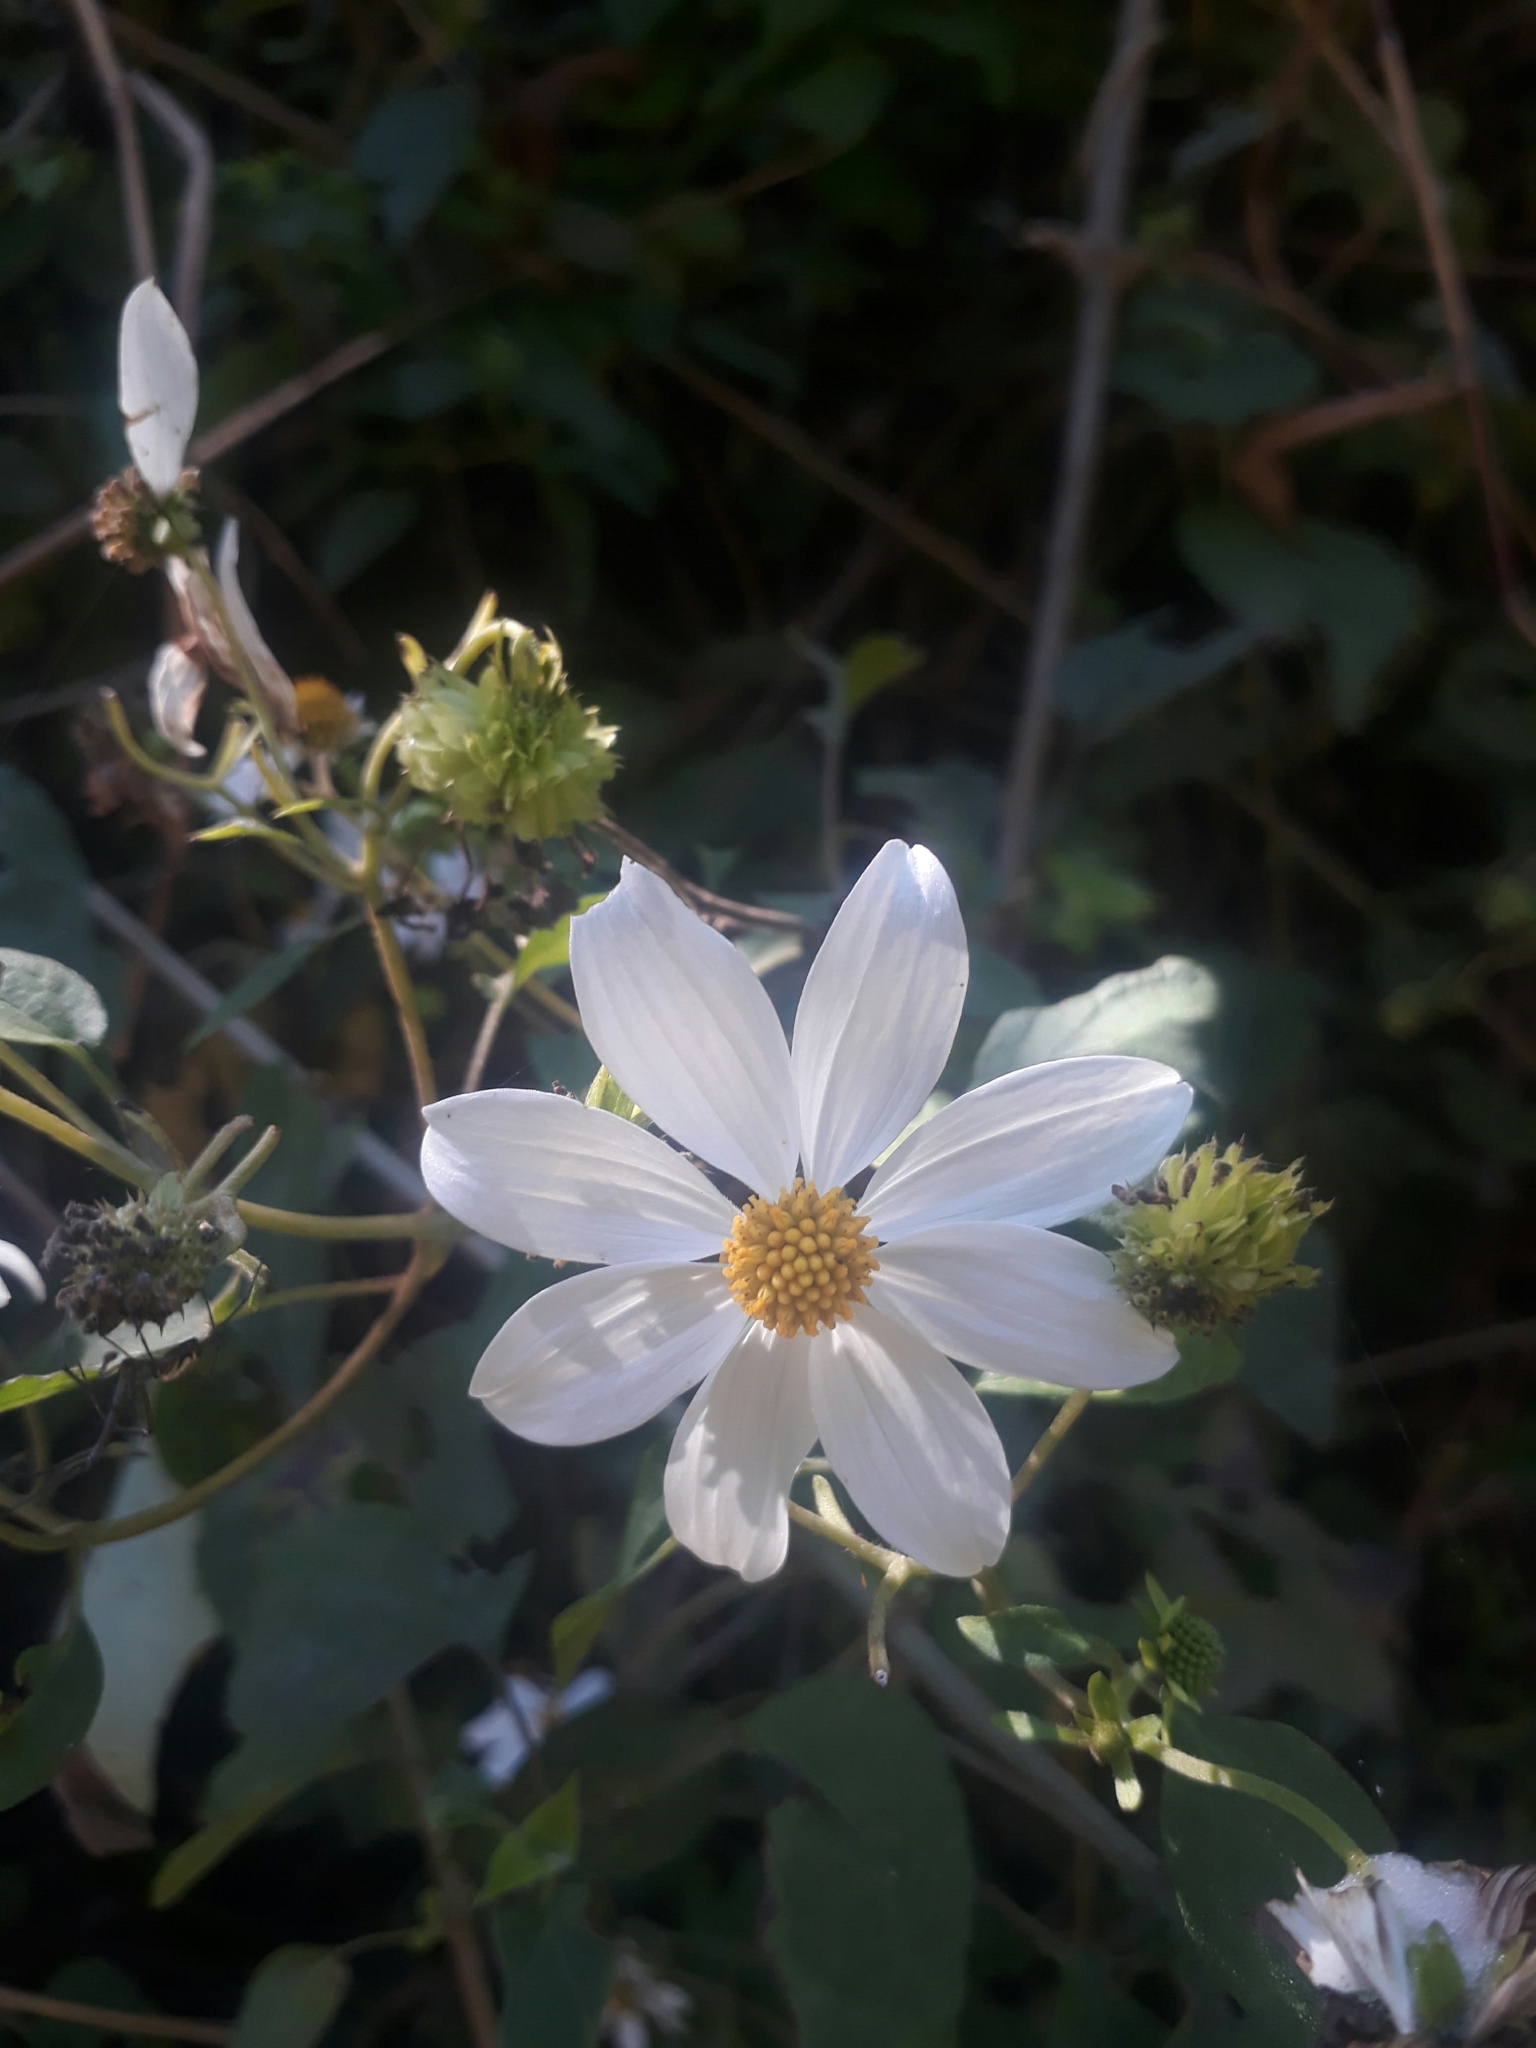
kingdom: Plantae
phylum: Tracheophyta
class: Magnoliopsida
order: Asterales
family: Asteraceae
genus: Montanoa
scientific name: Montanoa atriplicifolia
